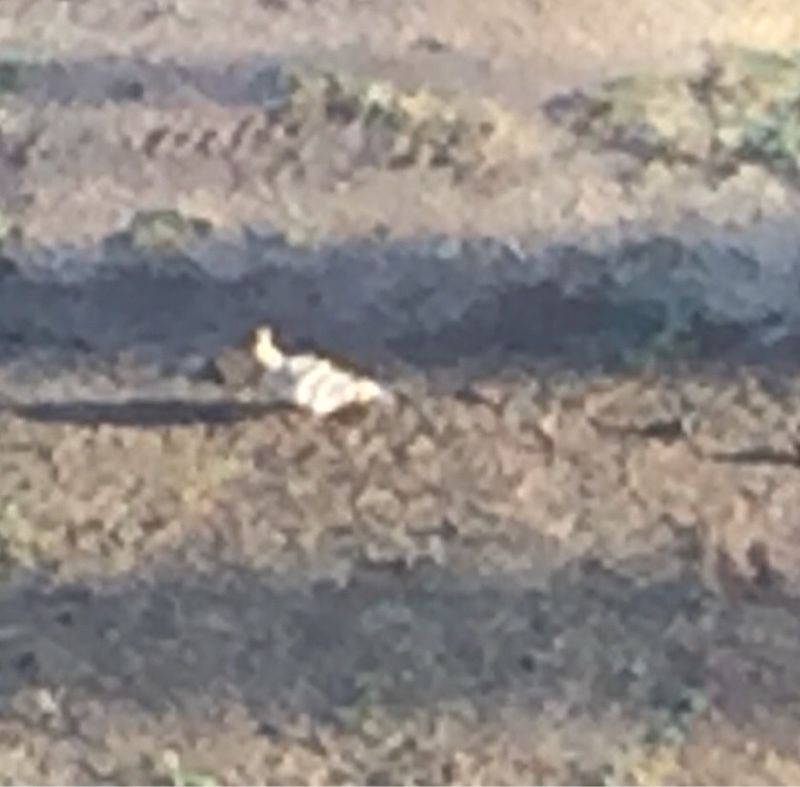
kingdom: Animalia
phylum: Chordata
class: Aves
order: Bucerotiformes
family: Upupidae
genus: Upupa
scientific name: Upupa epops
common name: Eurasian hoopoe
